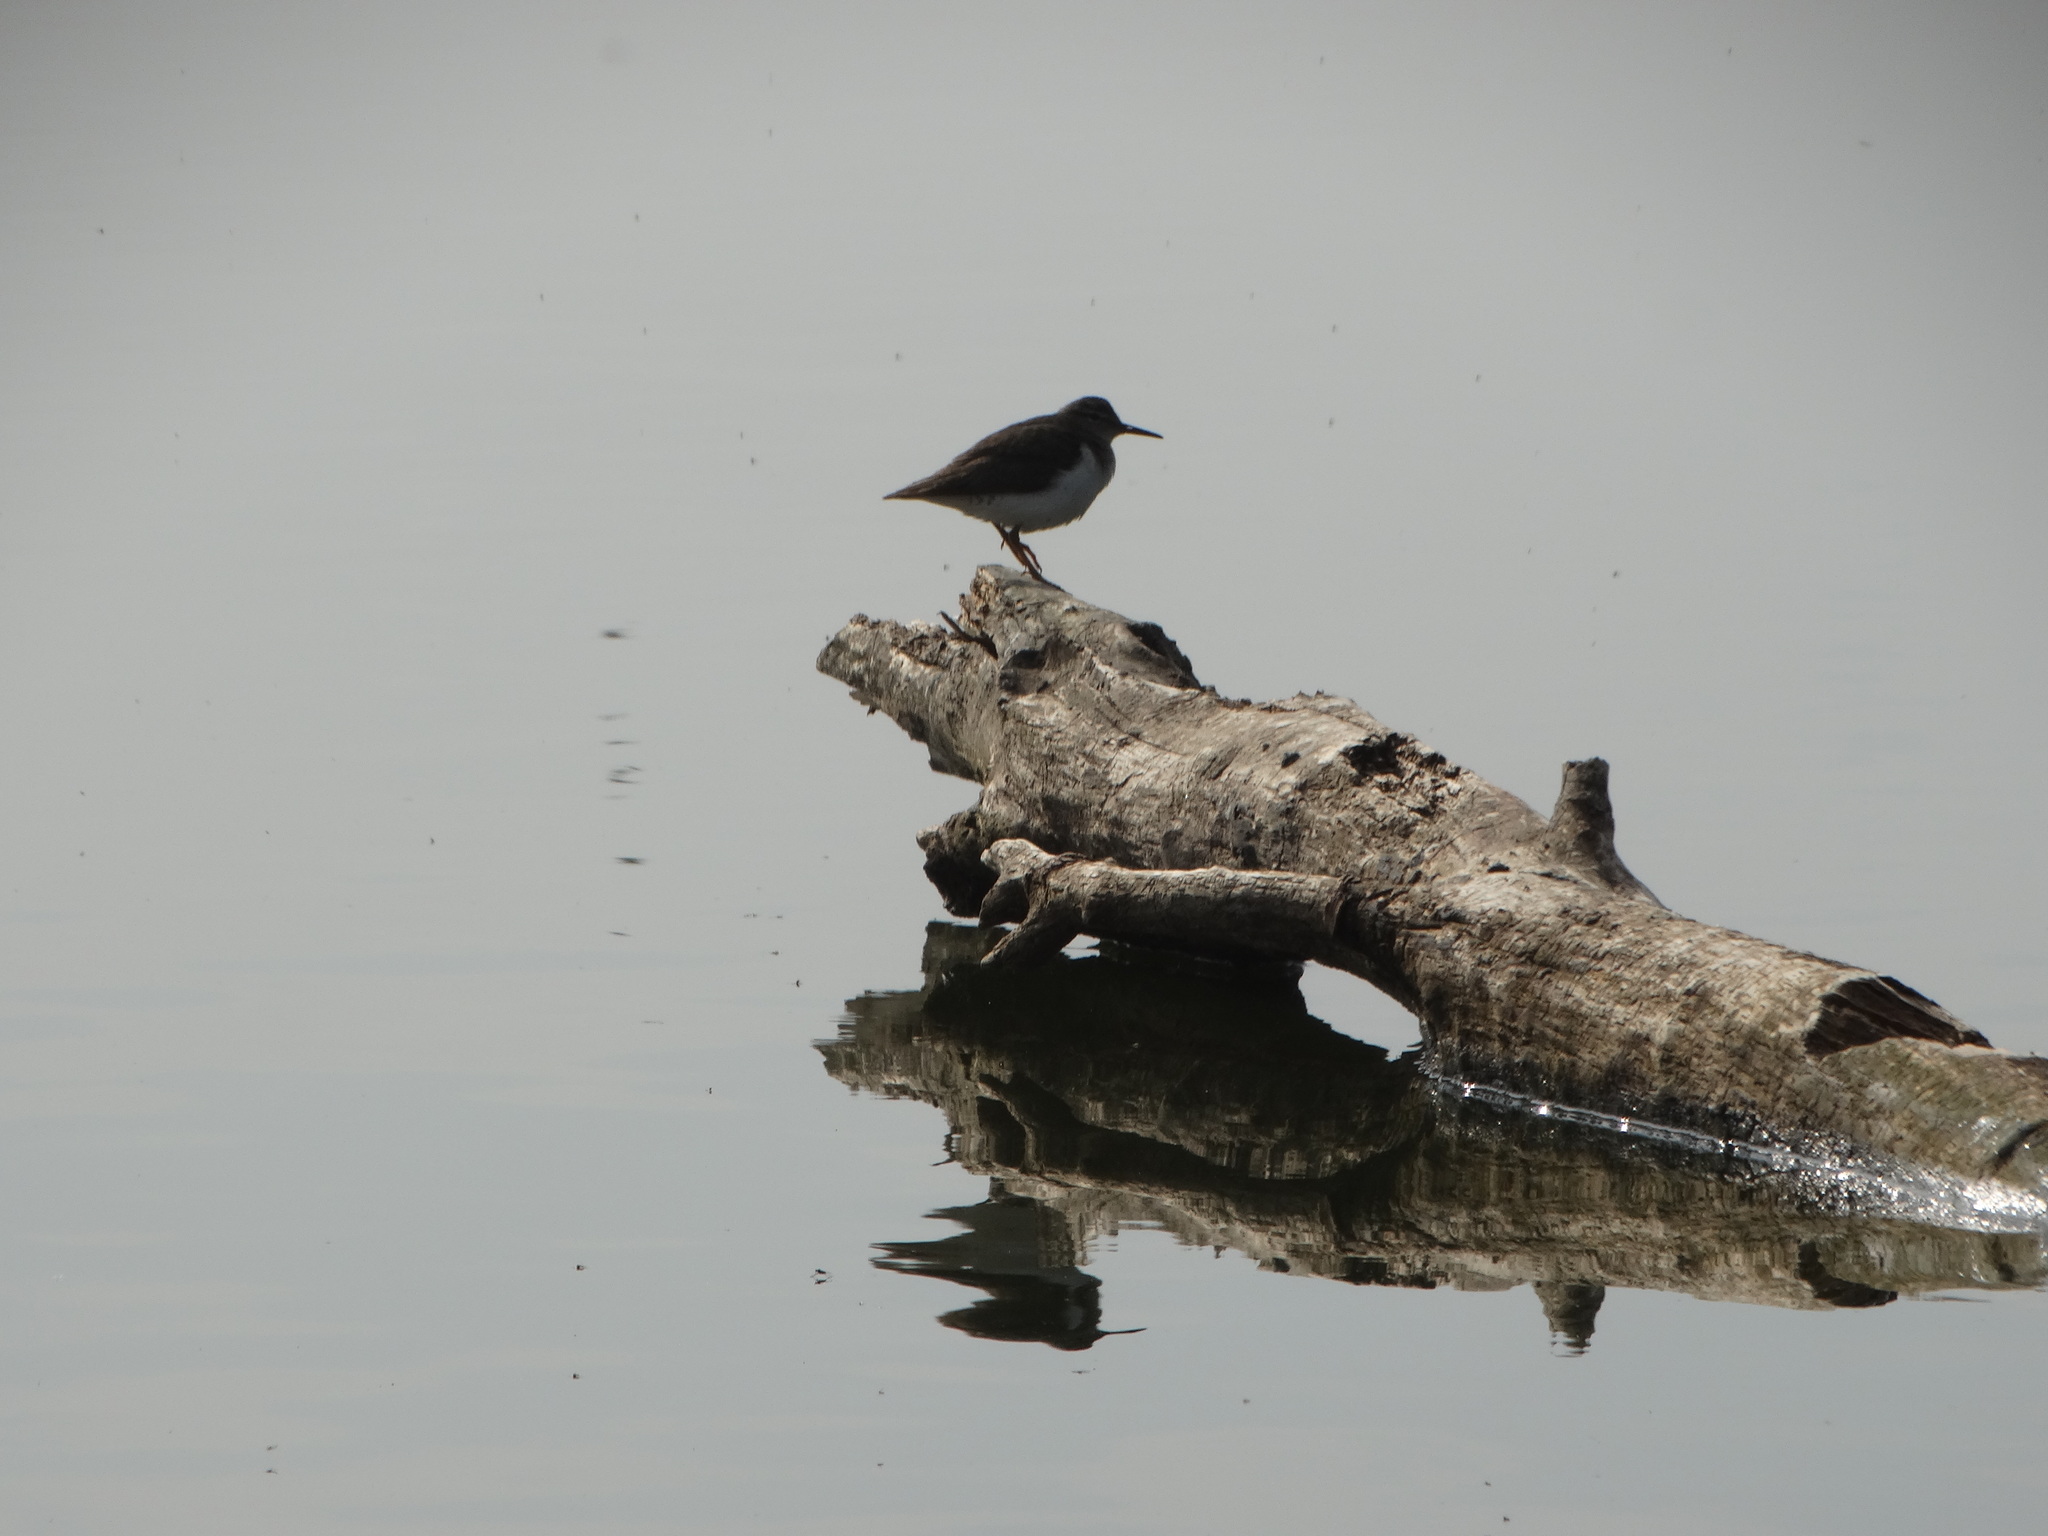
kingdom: Animalia
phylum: Chordata
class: Aves
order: Charadriiformes
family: Scolopacidae
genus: Actitis
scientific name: Actitis macularius
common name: Spotted sandpiper
